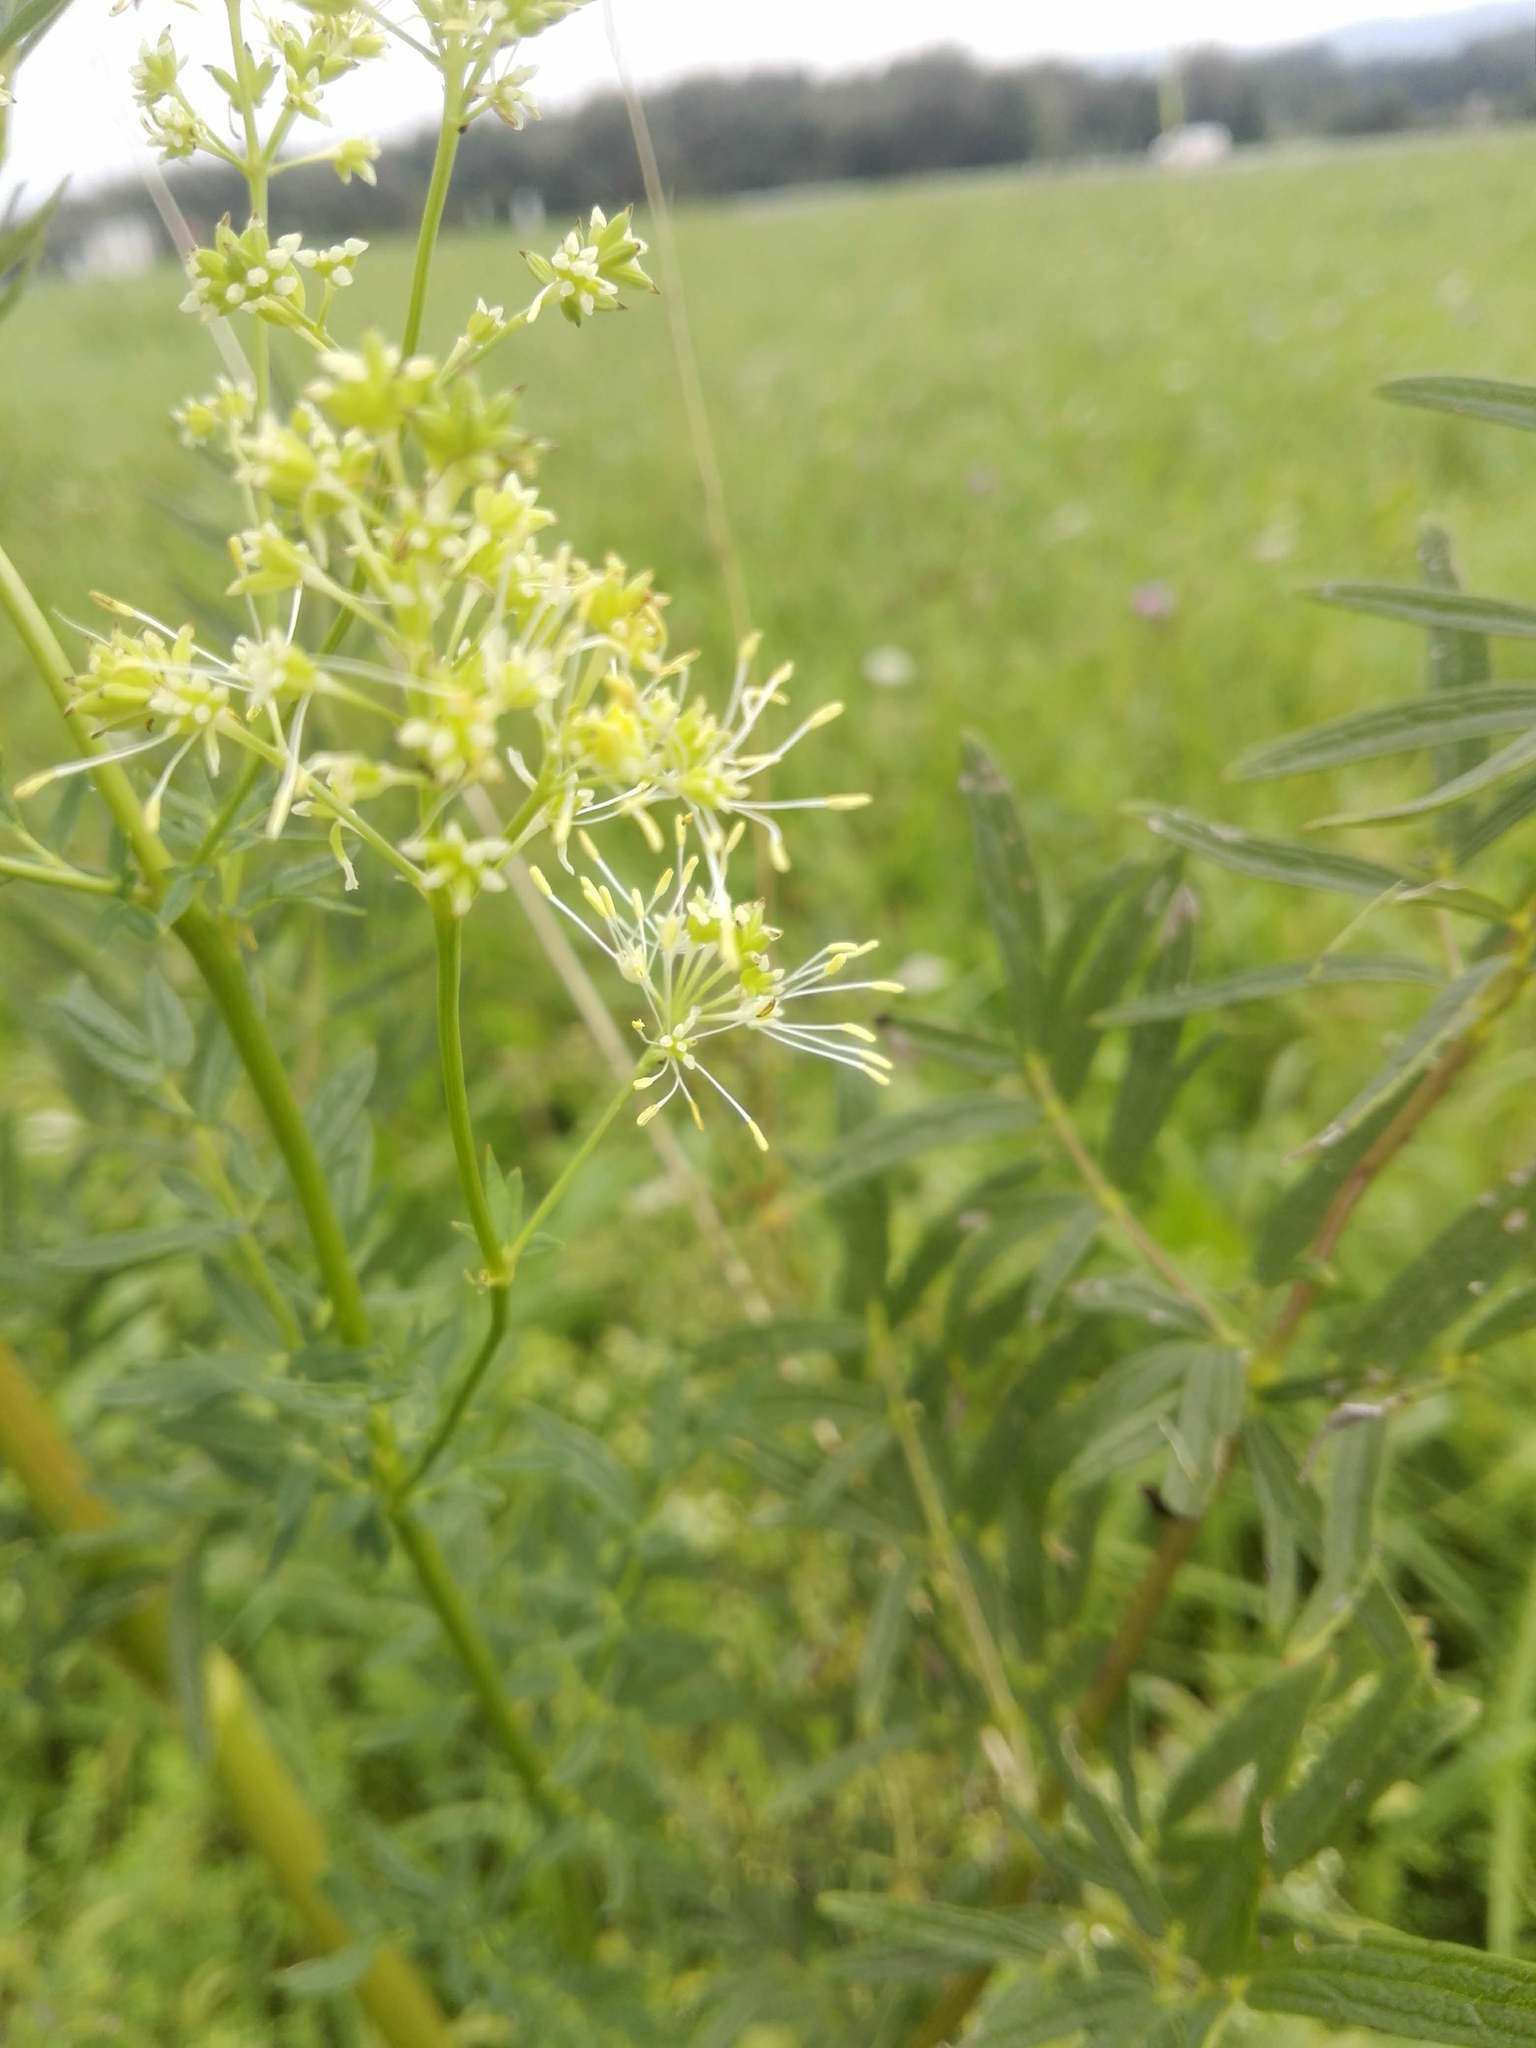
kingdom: Plantae
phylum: Tracheophyta
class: Magnoliopsida
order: Ranunculales
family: Ranunculaceae
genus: Thalictrum
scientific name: Thalictrum lucidum
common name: Shining meadow-rue
